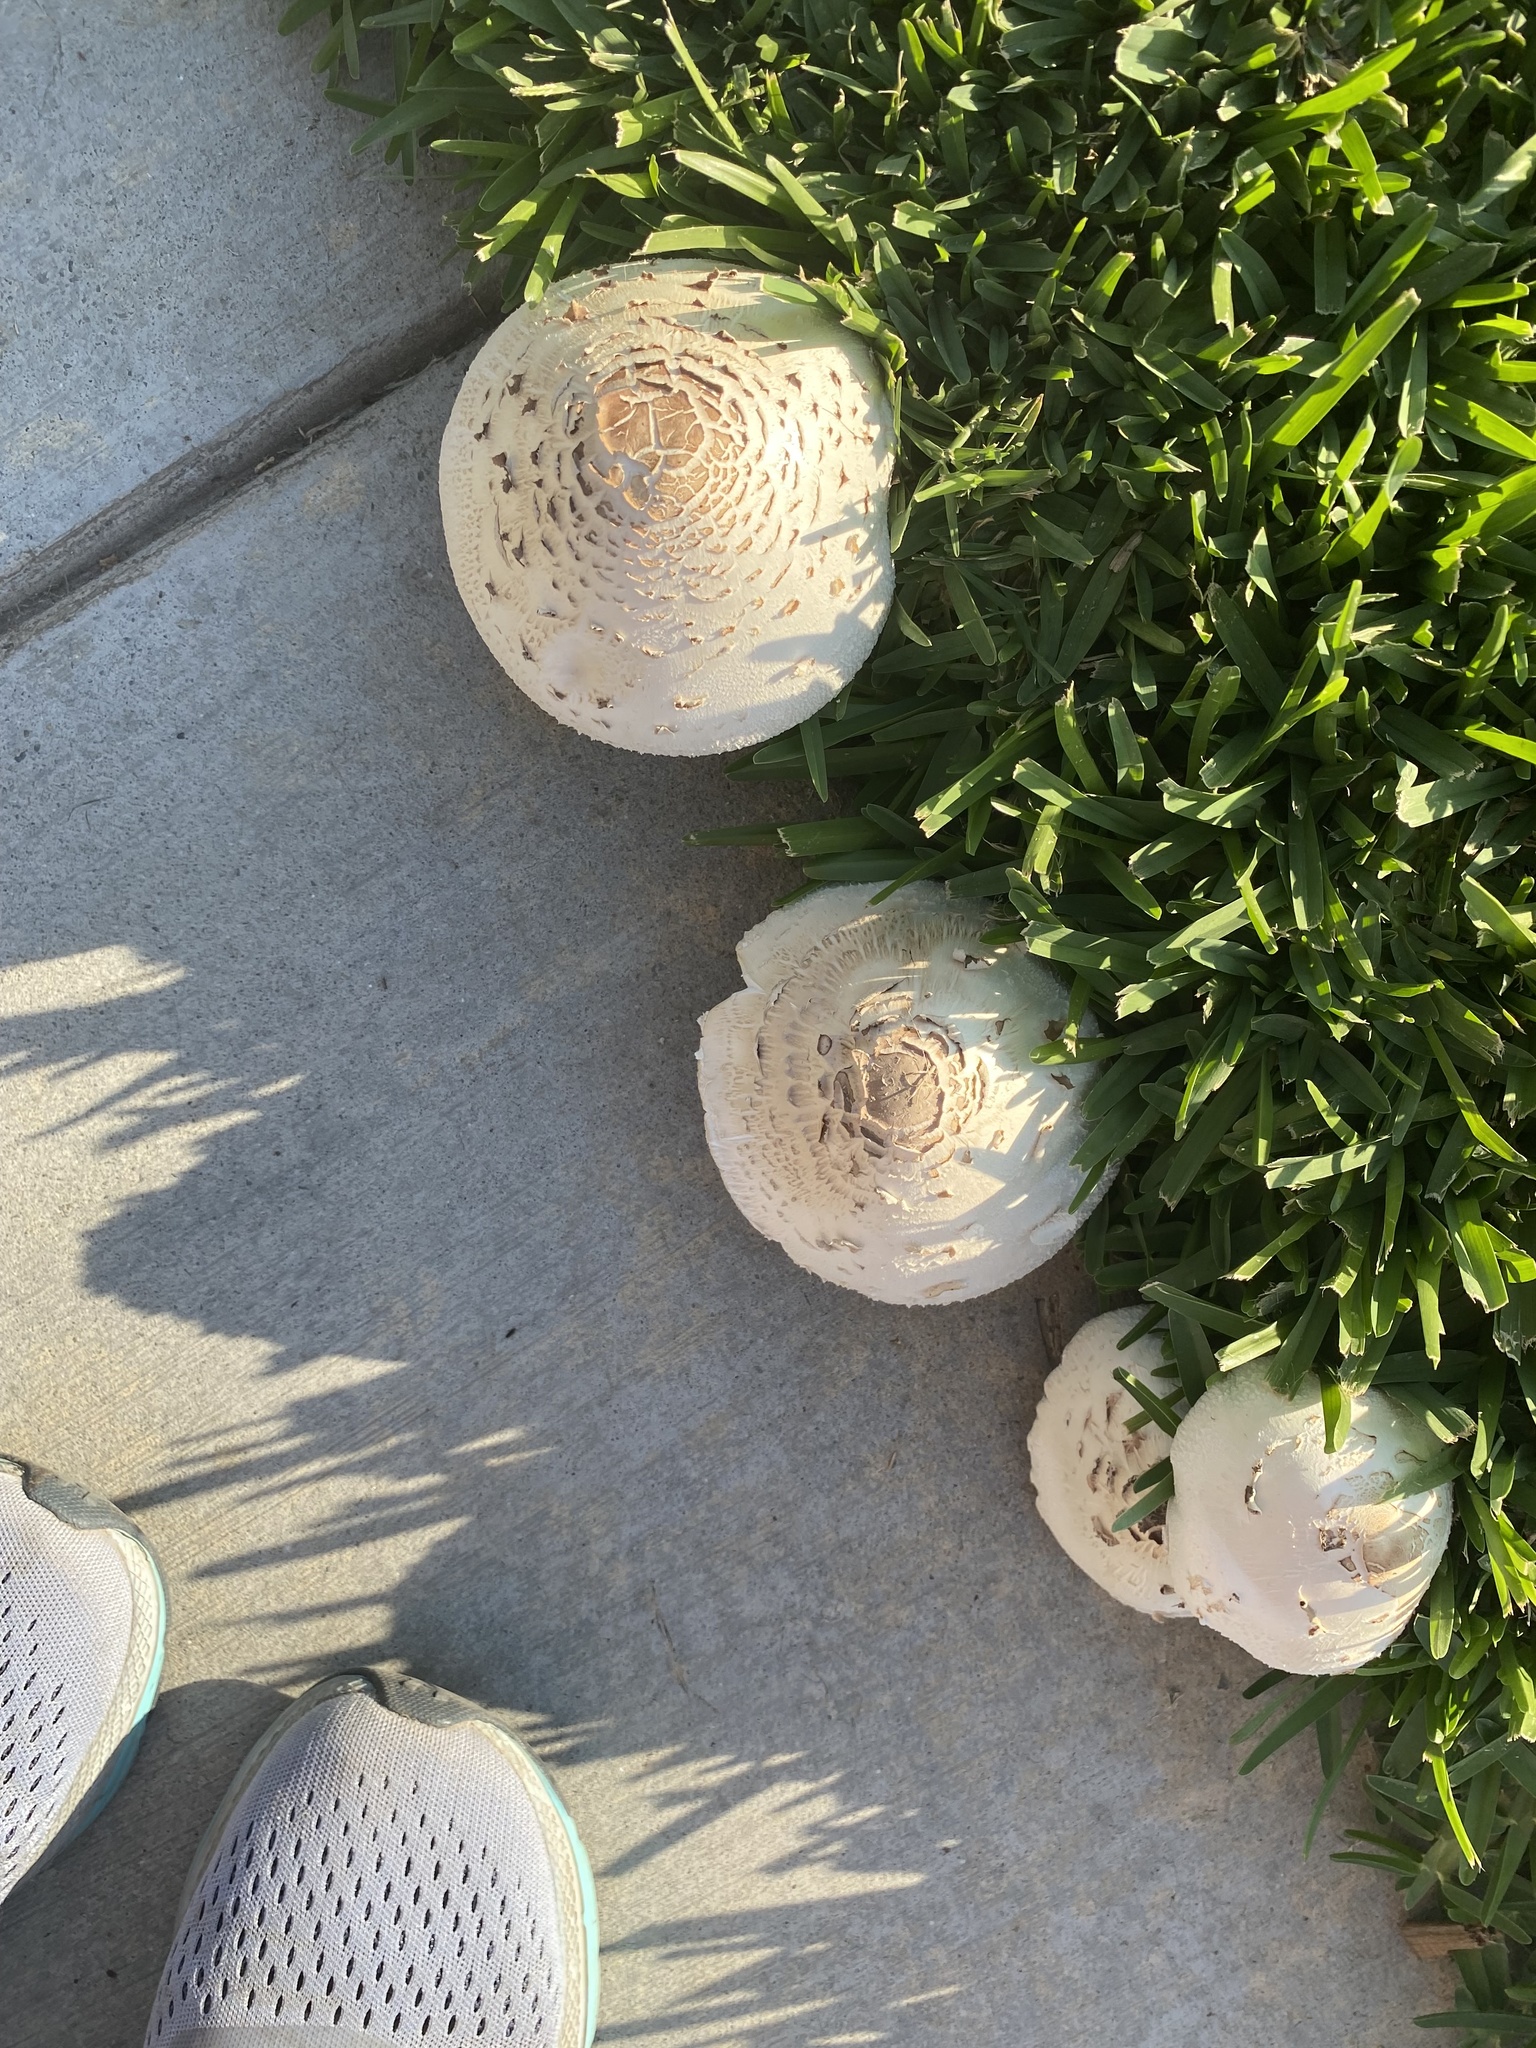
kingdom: Fungi
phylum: Basidiomycota
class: Agaricomycetes
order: Agaricales
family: Agaricaceae
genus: Chlorophyllum
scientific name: Chlorophyllum molybdites
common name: False parasol
